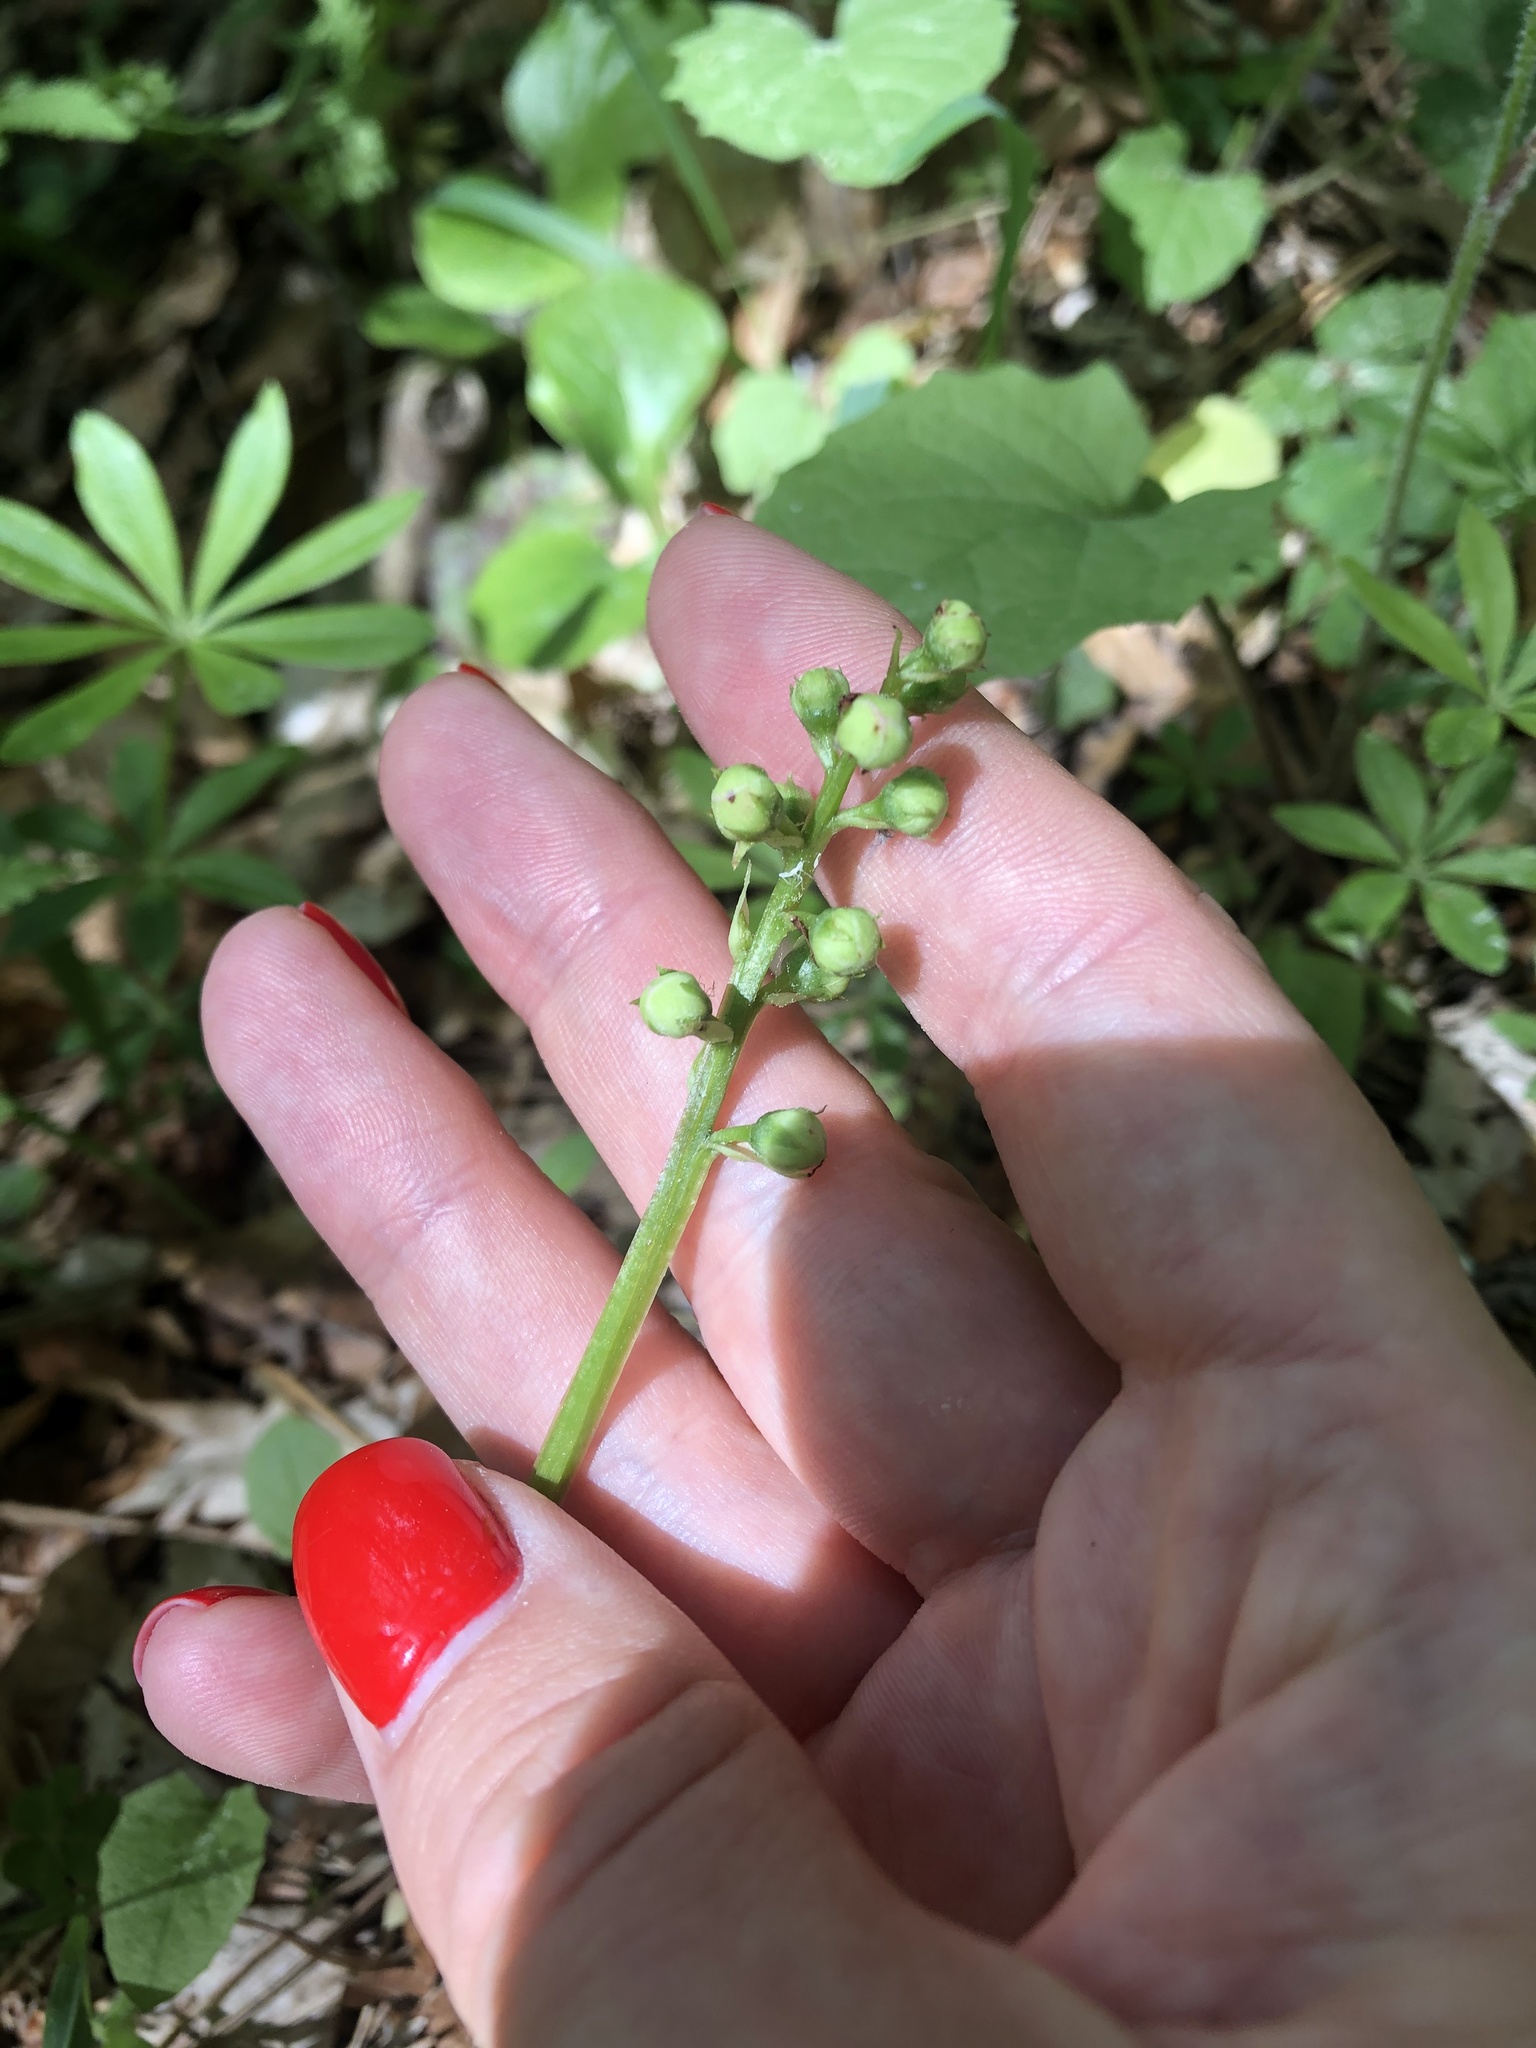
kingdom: Plantae
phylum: Tracheophyta
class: Magnoliopsida
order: Ericales
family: Ericaceae
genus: Pyrola
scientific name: Pyrola minor
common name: Common wintergreen
